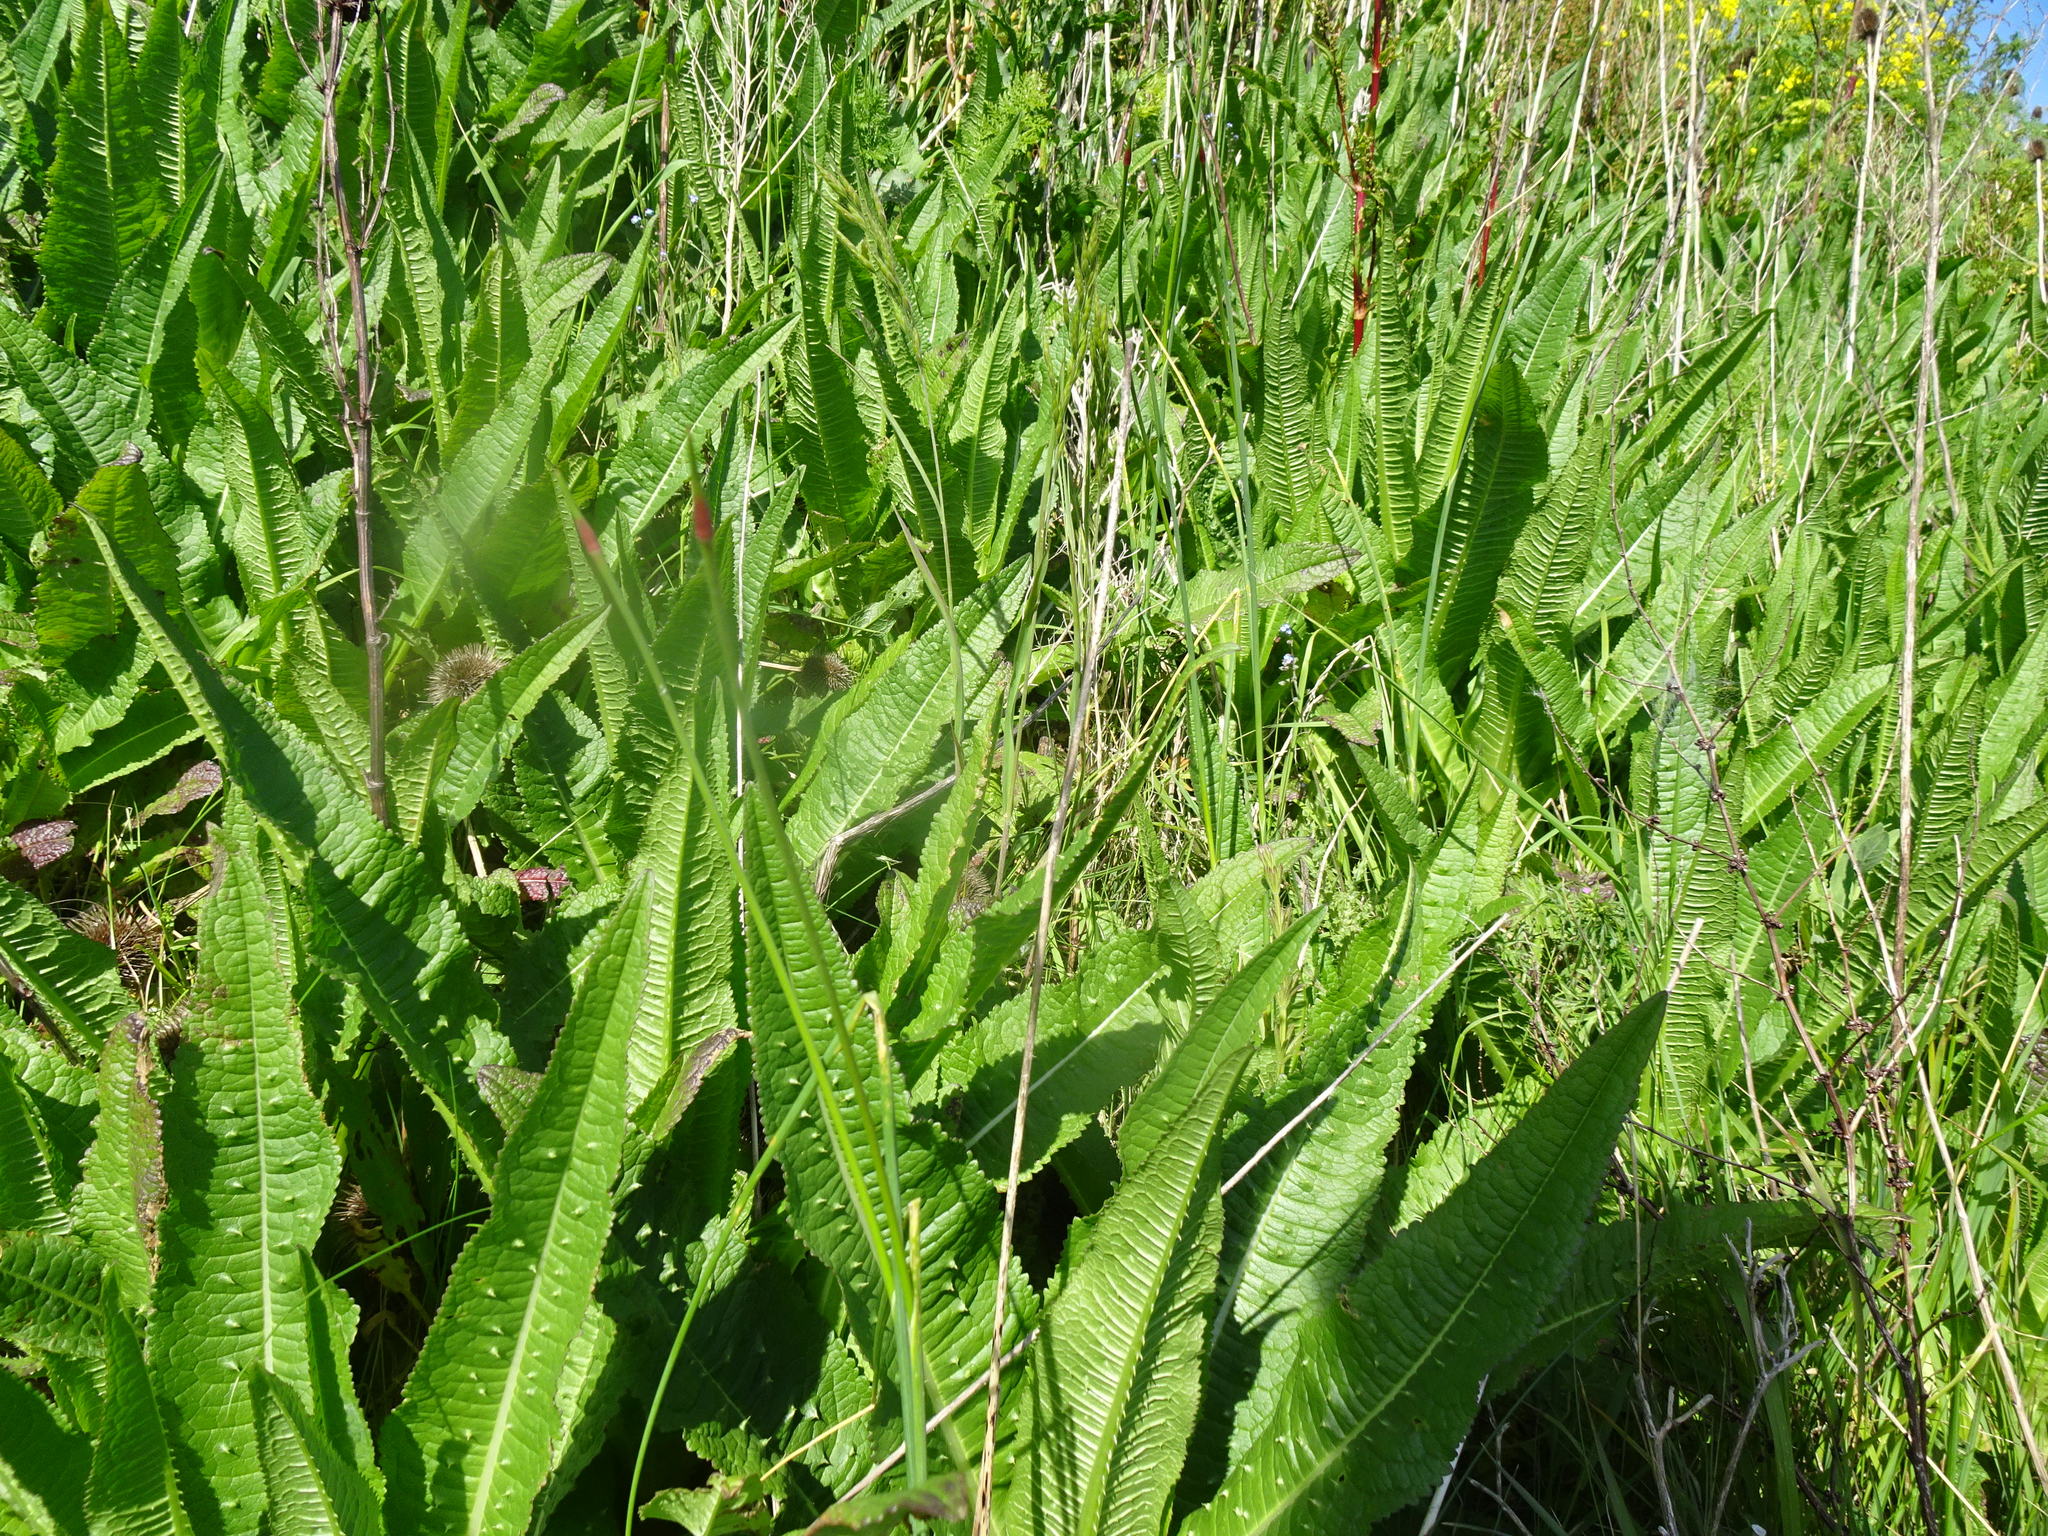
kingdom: Plantae
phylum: Tracheophyta
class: Magnoliopsida
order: Dipsacales
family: Caprifoliaceae
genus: Dipsacus
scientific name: Dipsacus fullonum
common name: Teasel
